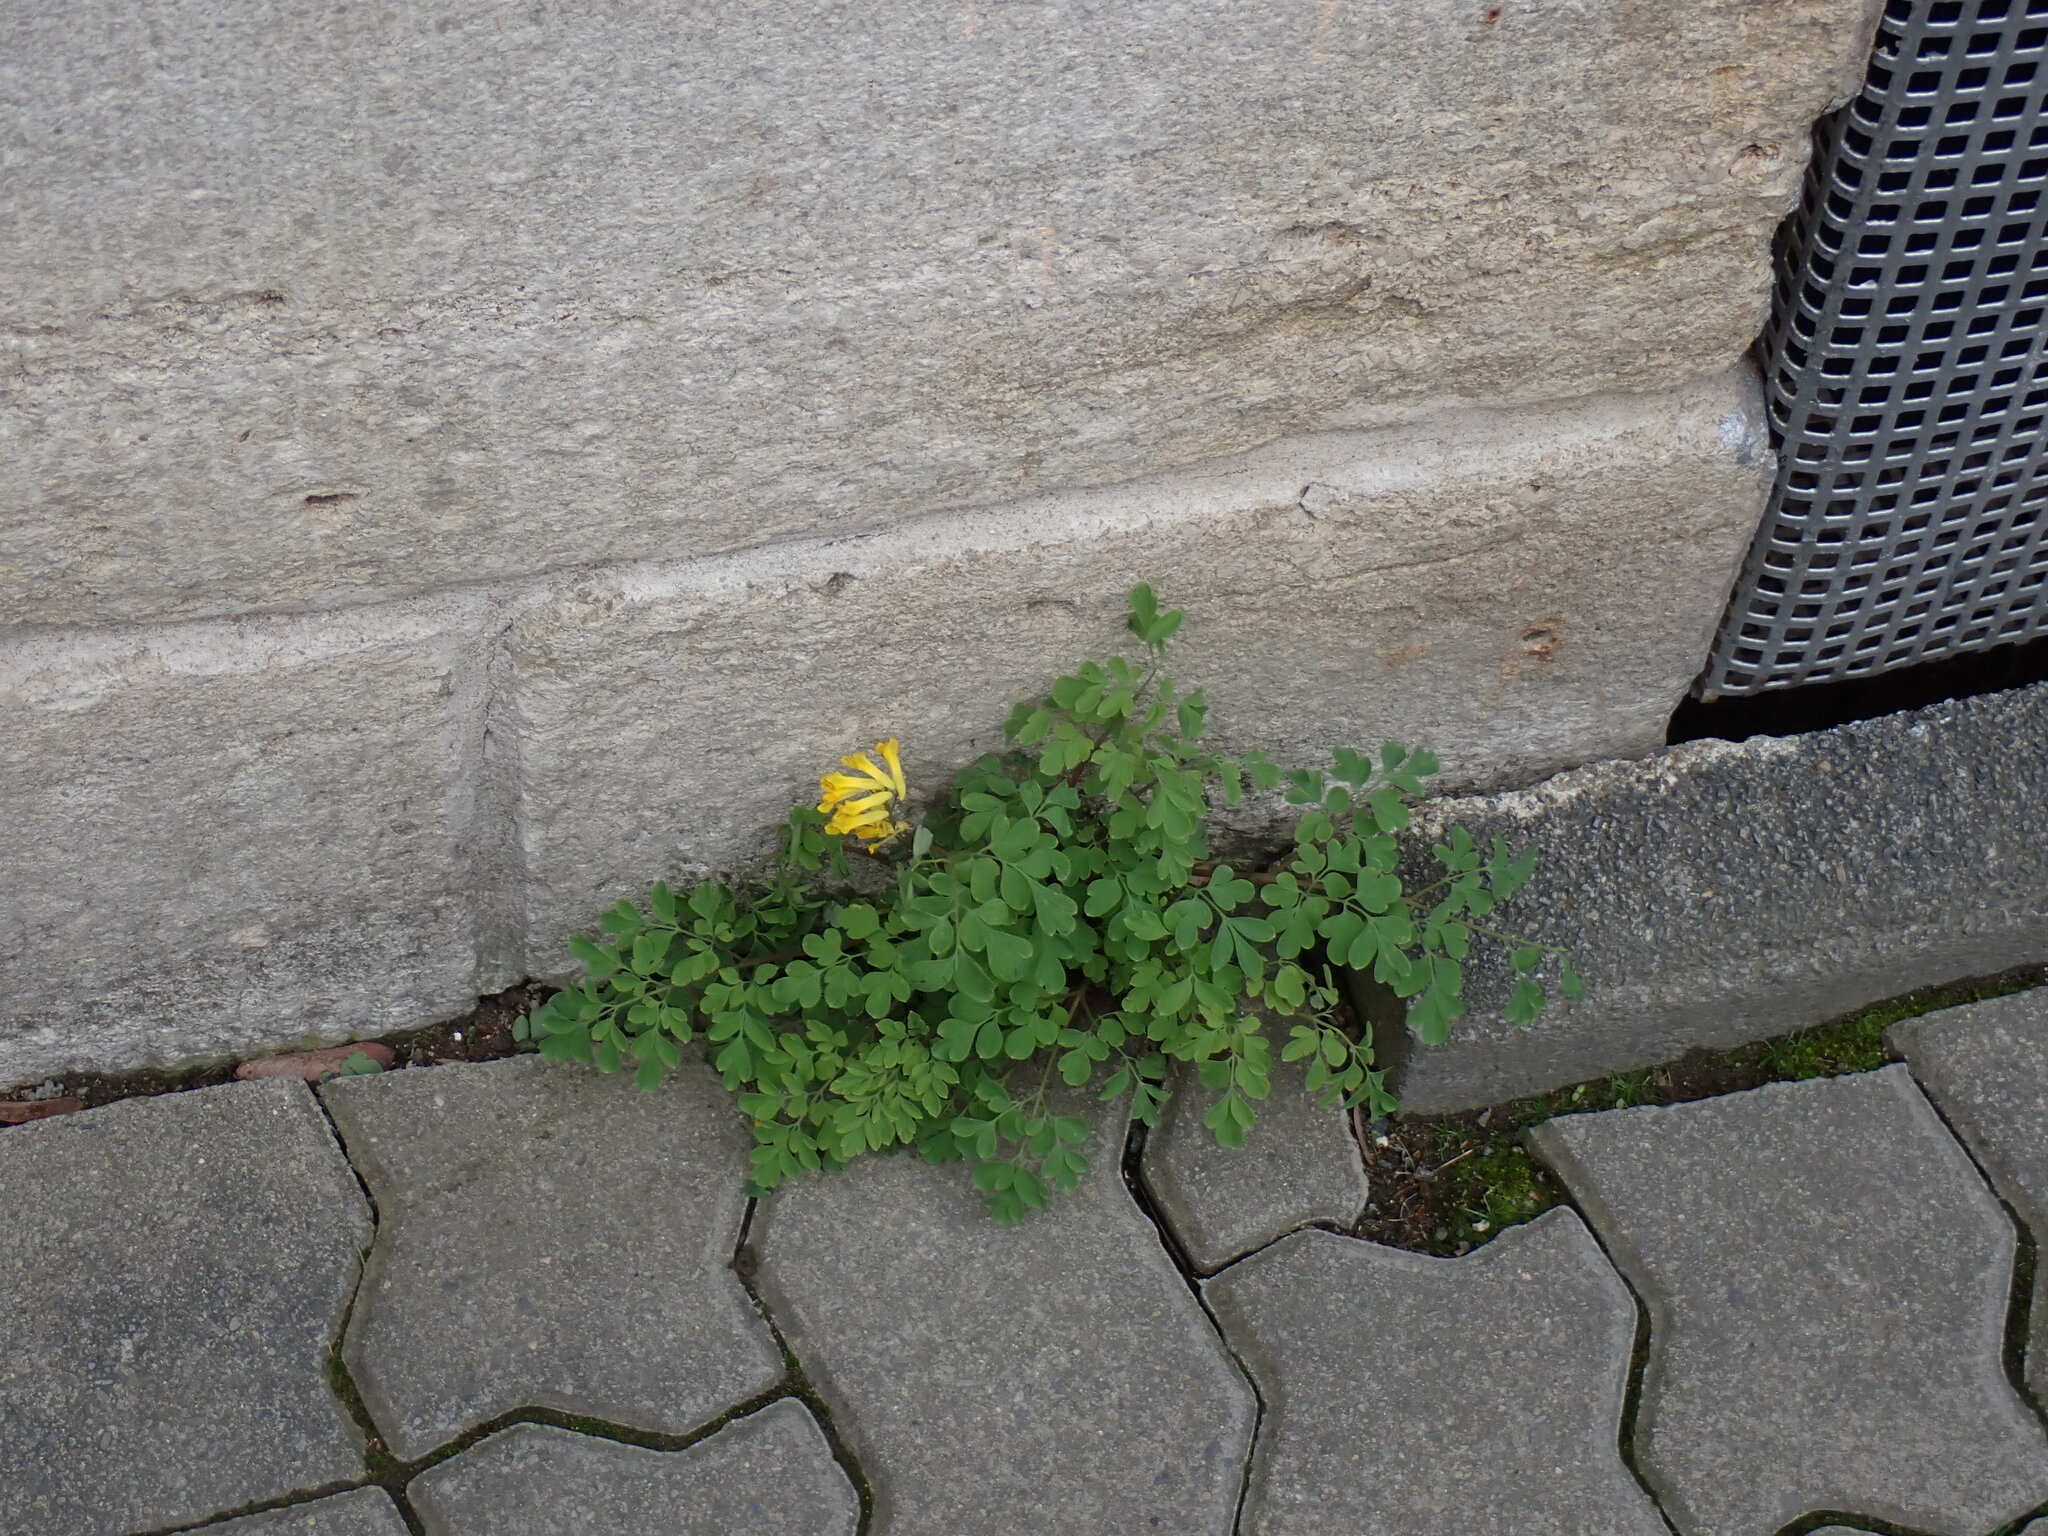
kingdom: Plantae
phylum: Tracheophyta
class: Magnoliopsida
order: Ranunculales
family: Papaveraceae
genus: Pseudofumaria
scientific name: Pseudofumaria lutea
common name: Yellow corydalis
